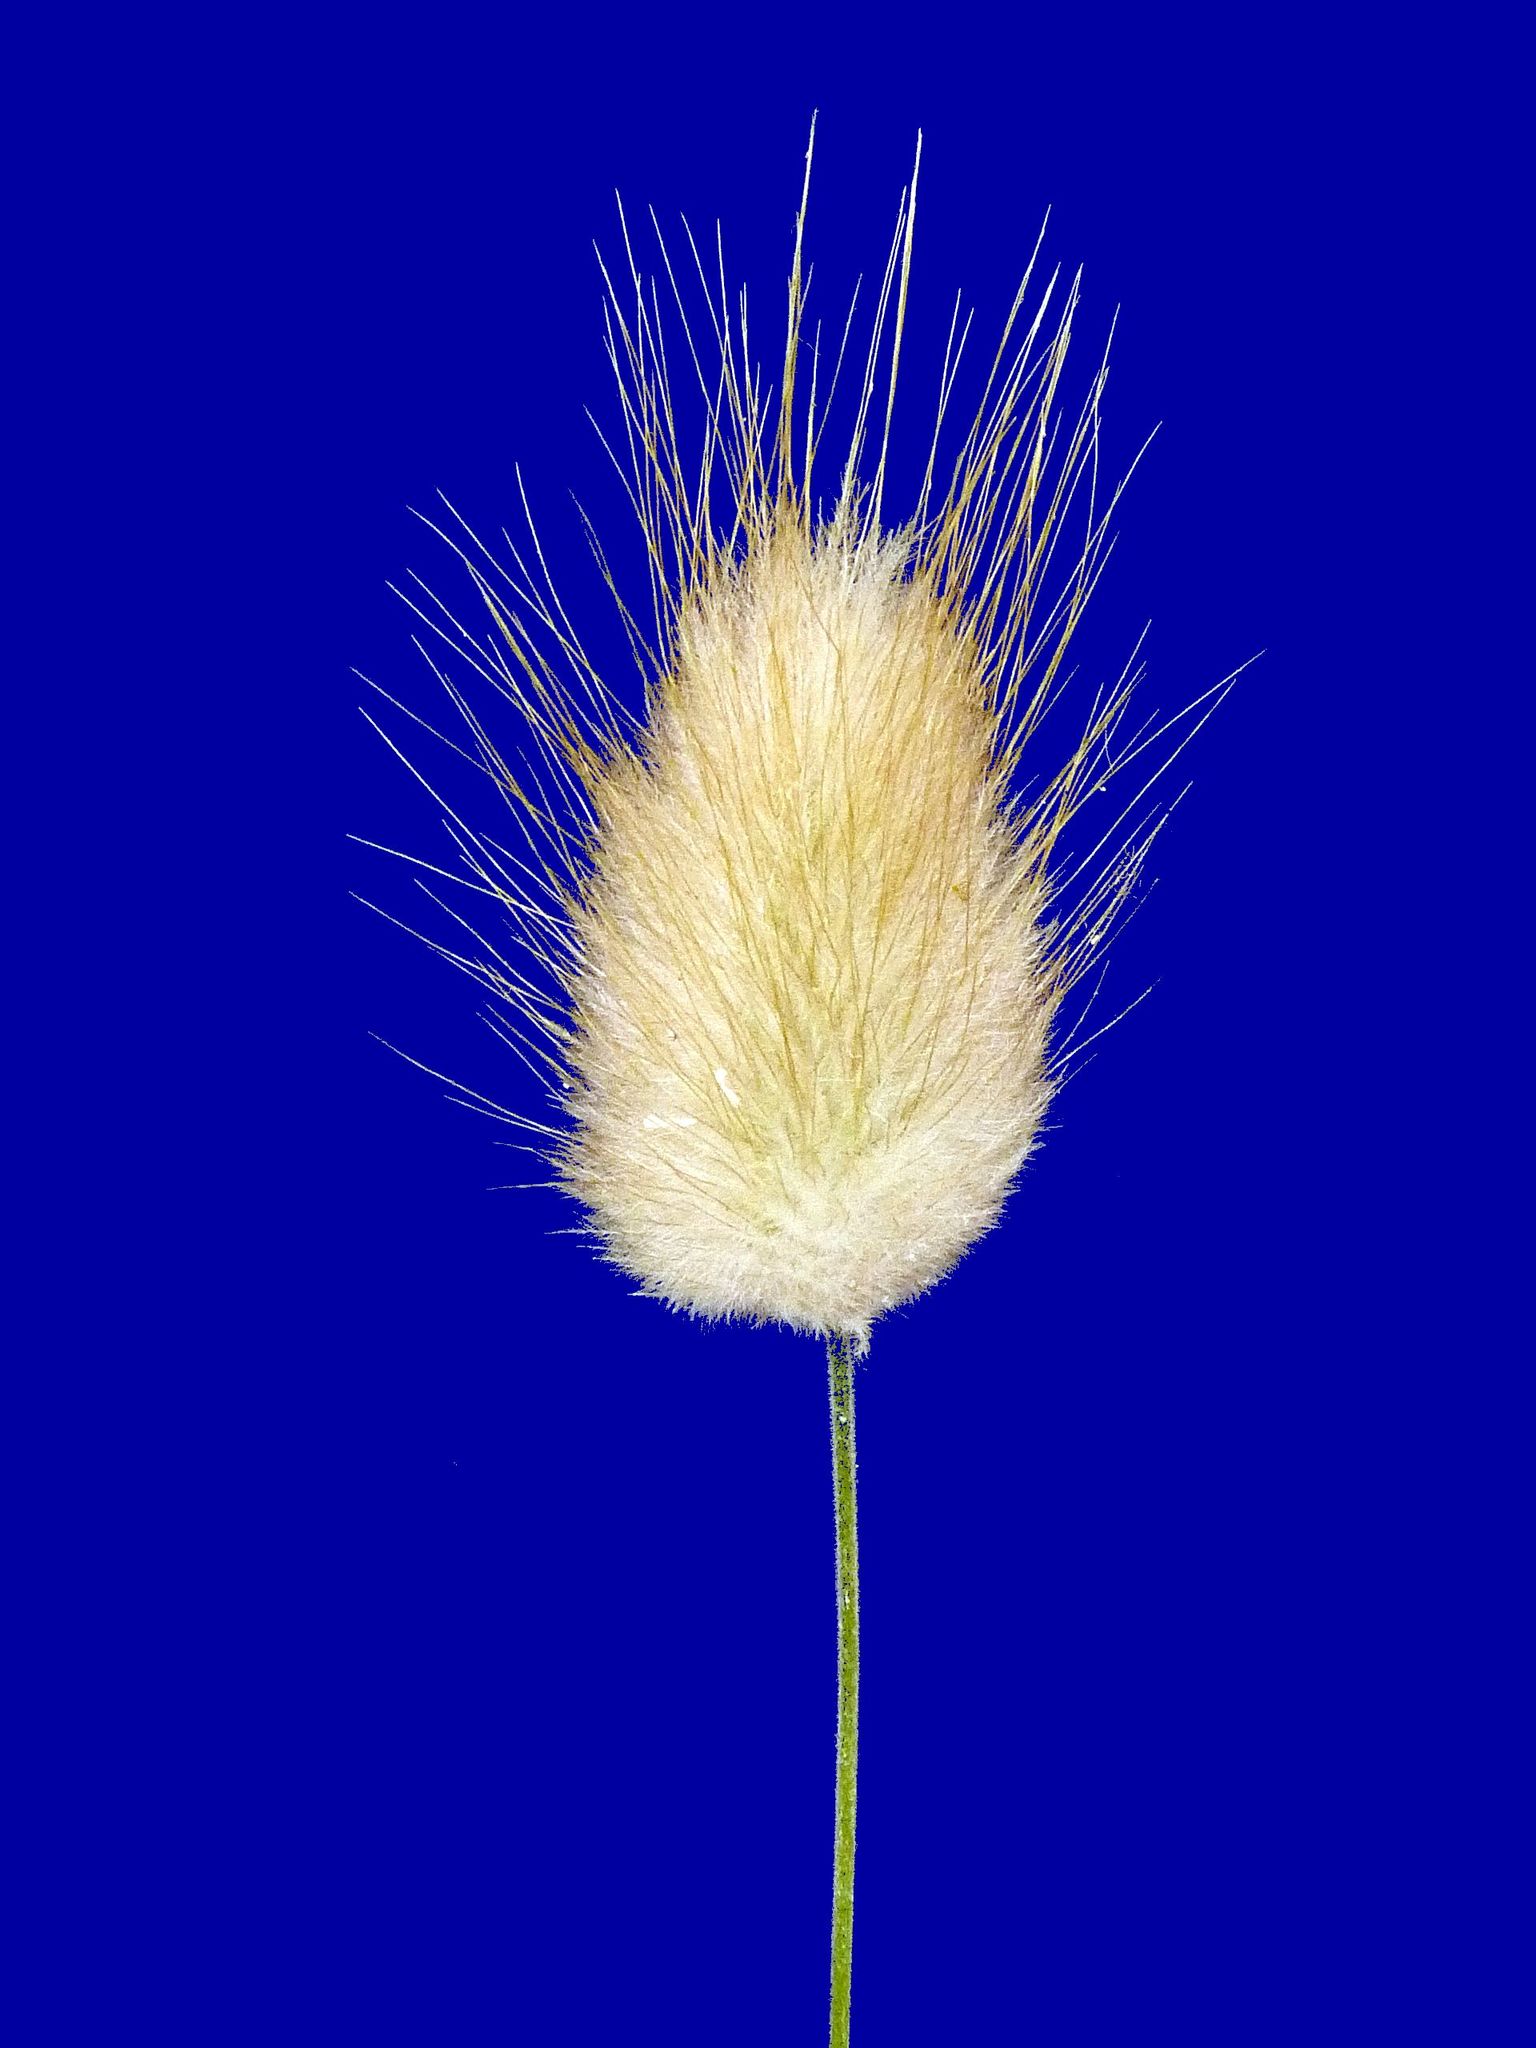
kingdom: Plantae
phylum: Tracheophyta
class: Liliopsida
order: Poales
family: Poaceae
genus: Lagurus
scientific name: Lagurus ovatus
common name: Hare's-tail
